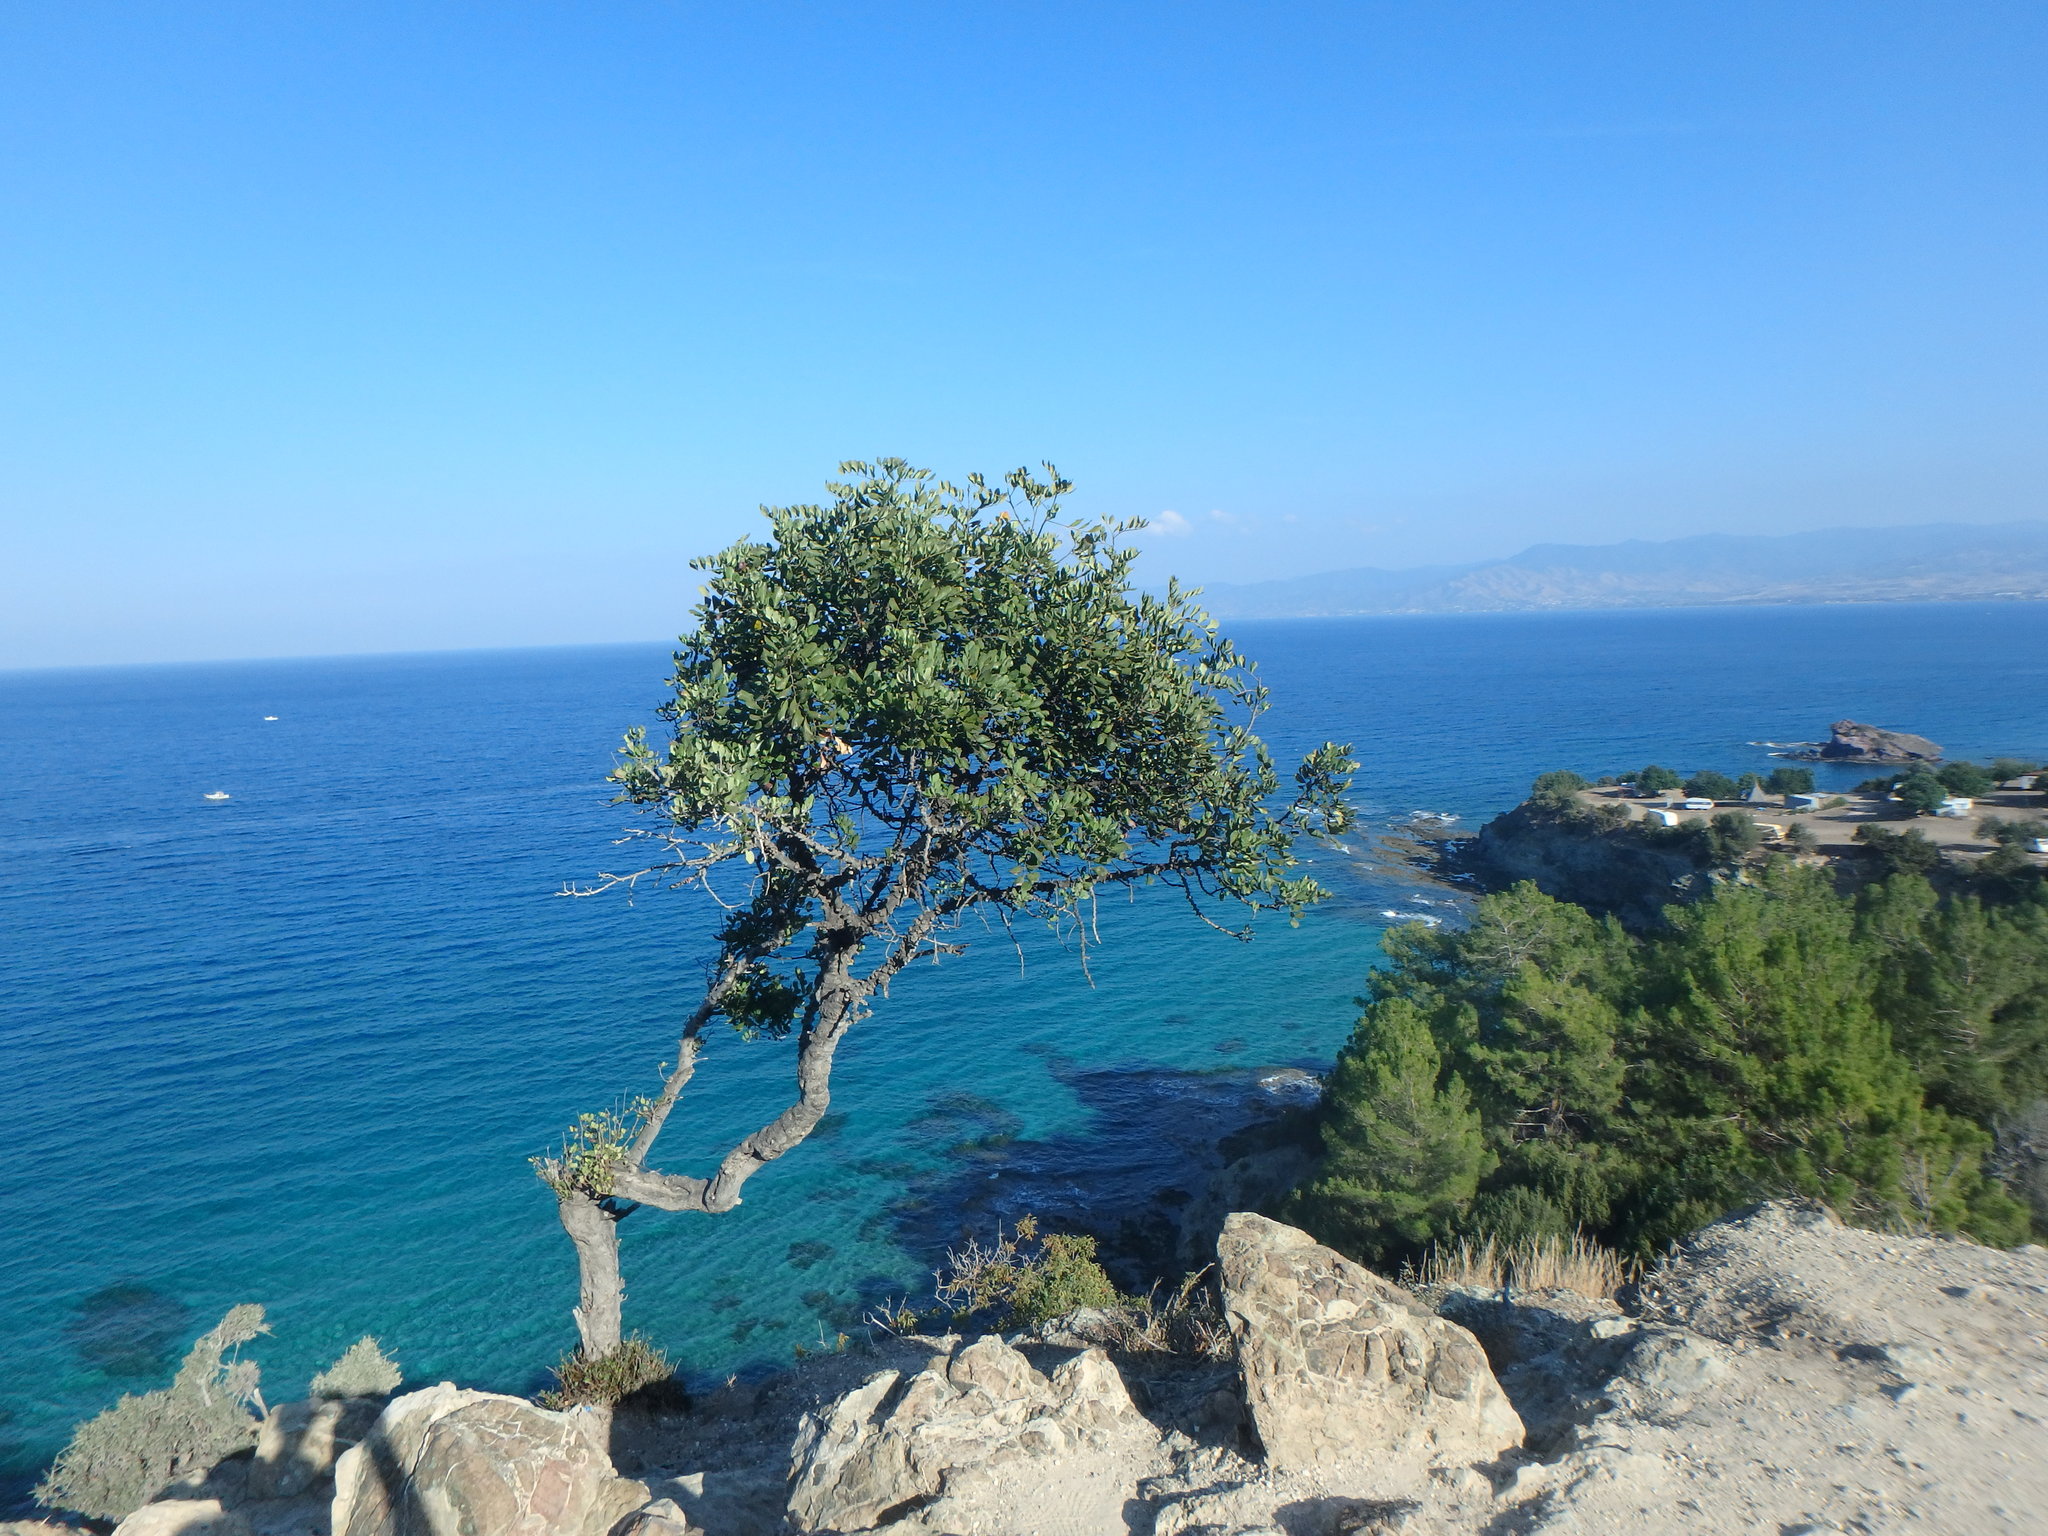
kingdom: Plantae
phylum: Tracheophyta
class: Magnoliopsida
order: Fabales
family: Fabaceae
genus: Ceratonia
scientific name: Ceratonia siliqua
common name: Carob
